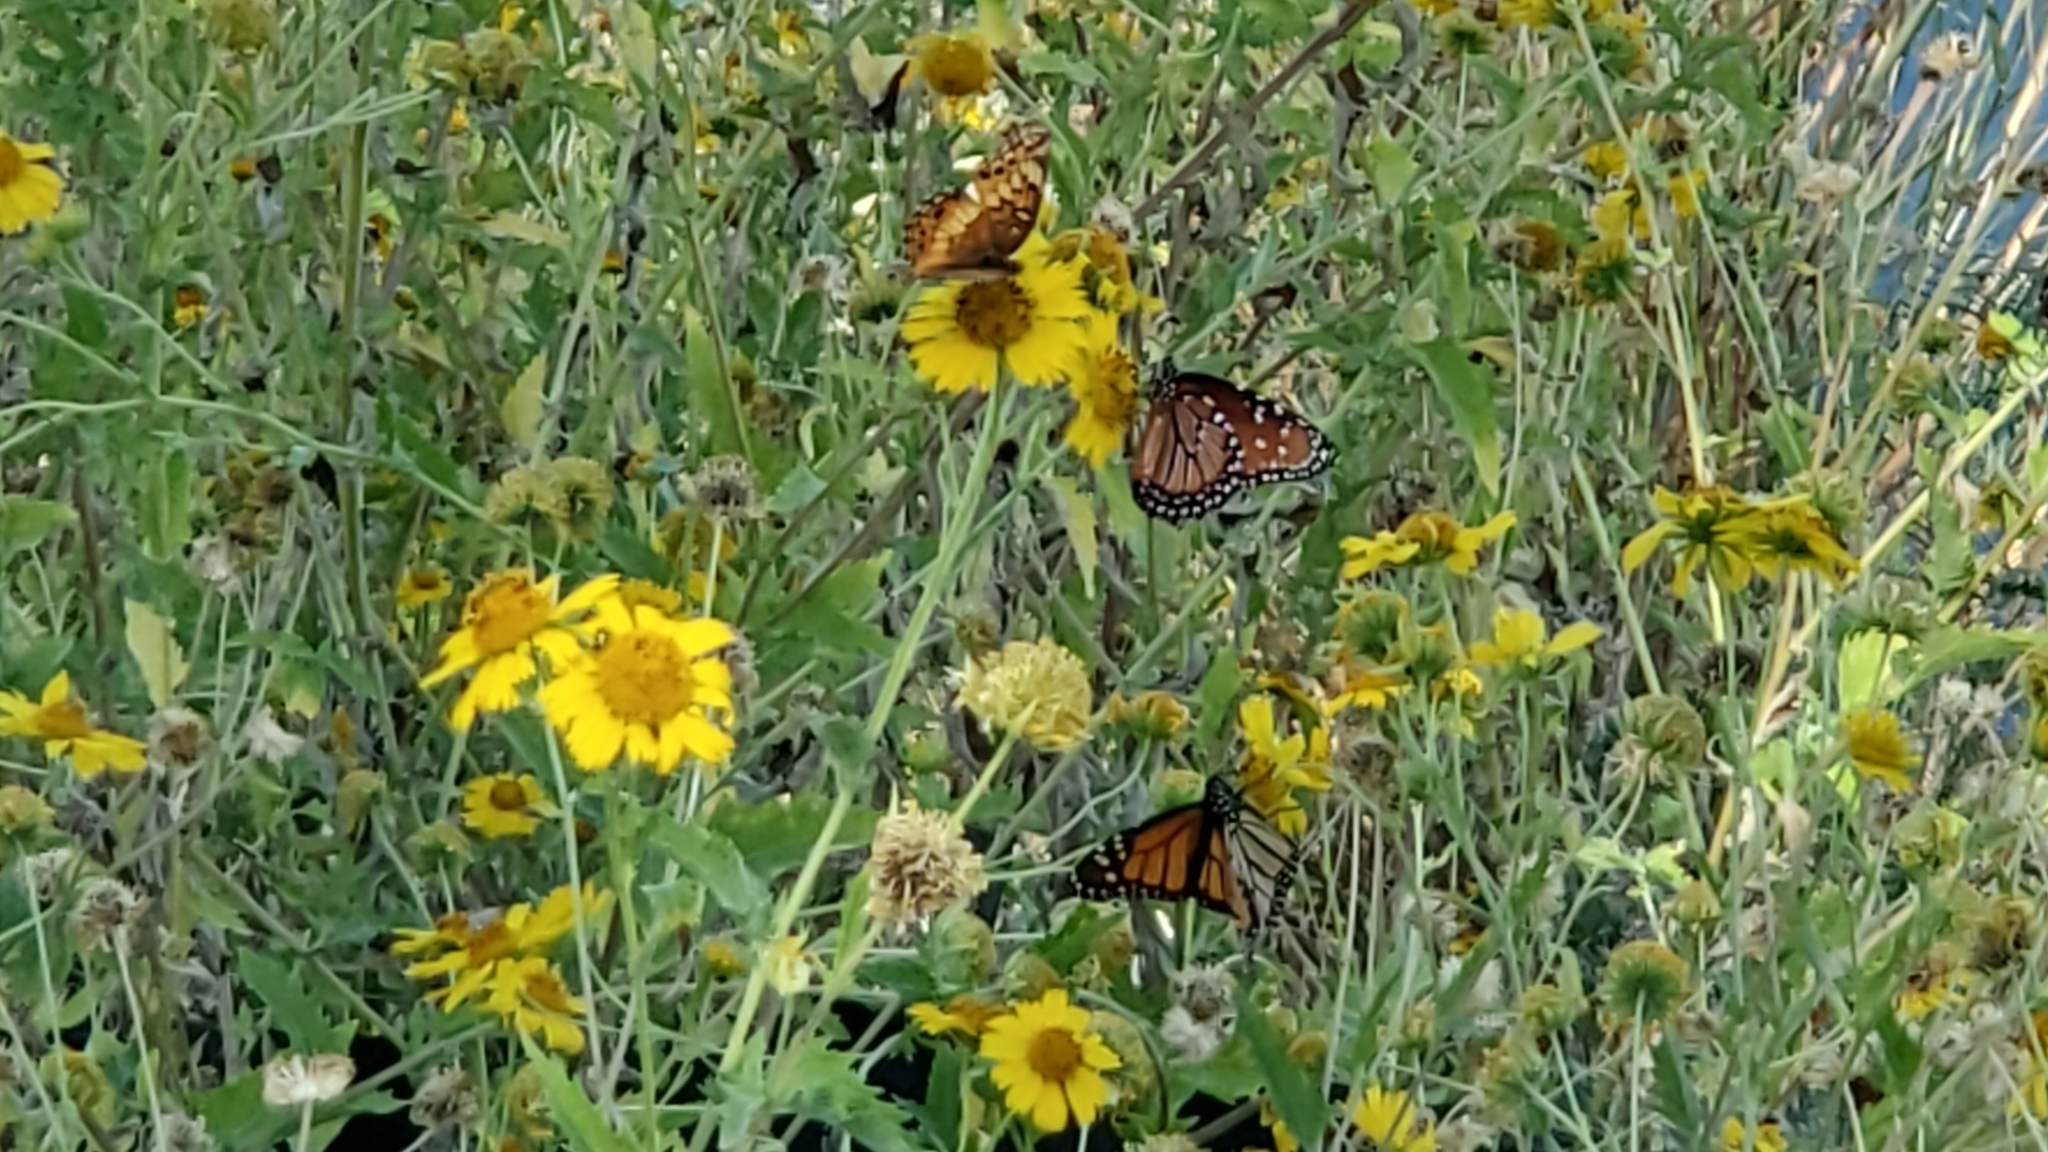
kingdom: Animalia
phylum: Arthropoda
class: Insecta
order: Lepidoptera
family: Nymphalidae
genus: Danaus
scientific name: Danaus plexippus
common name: Monarch
